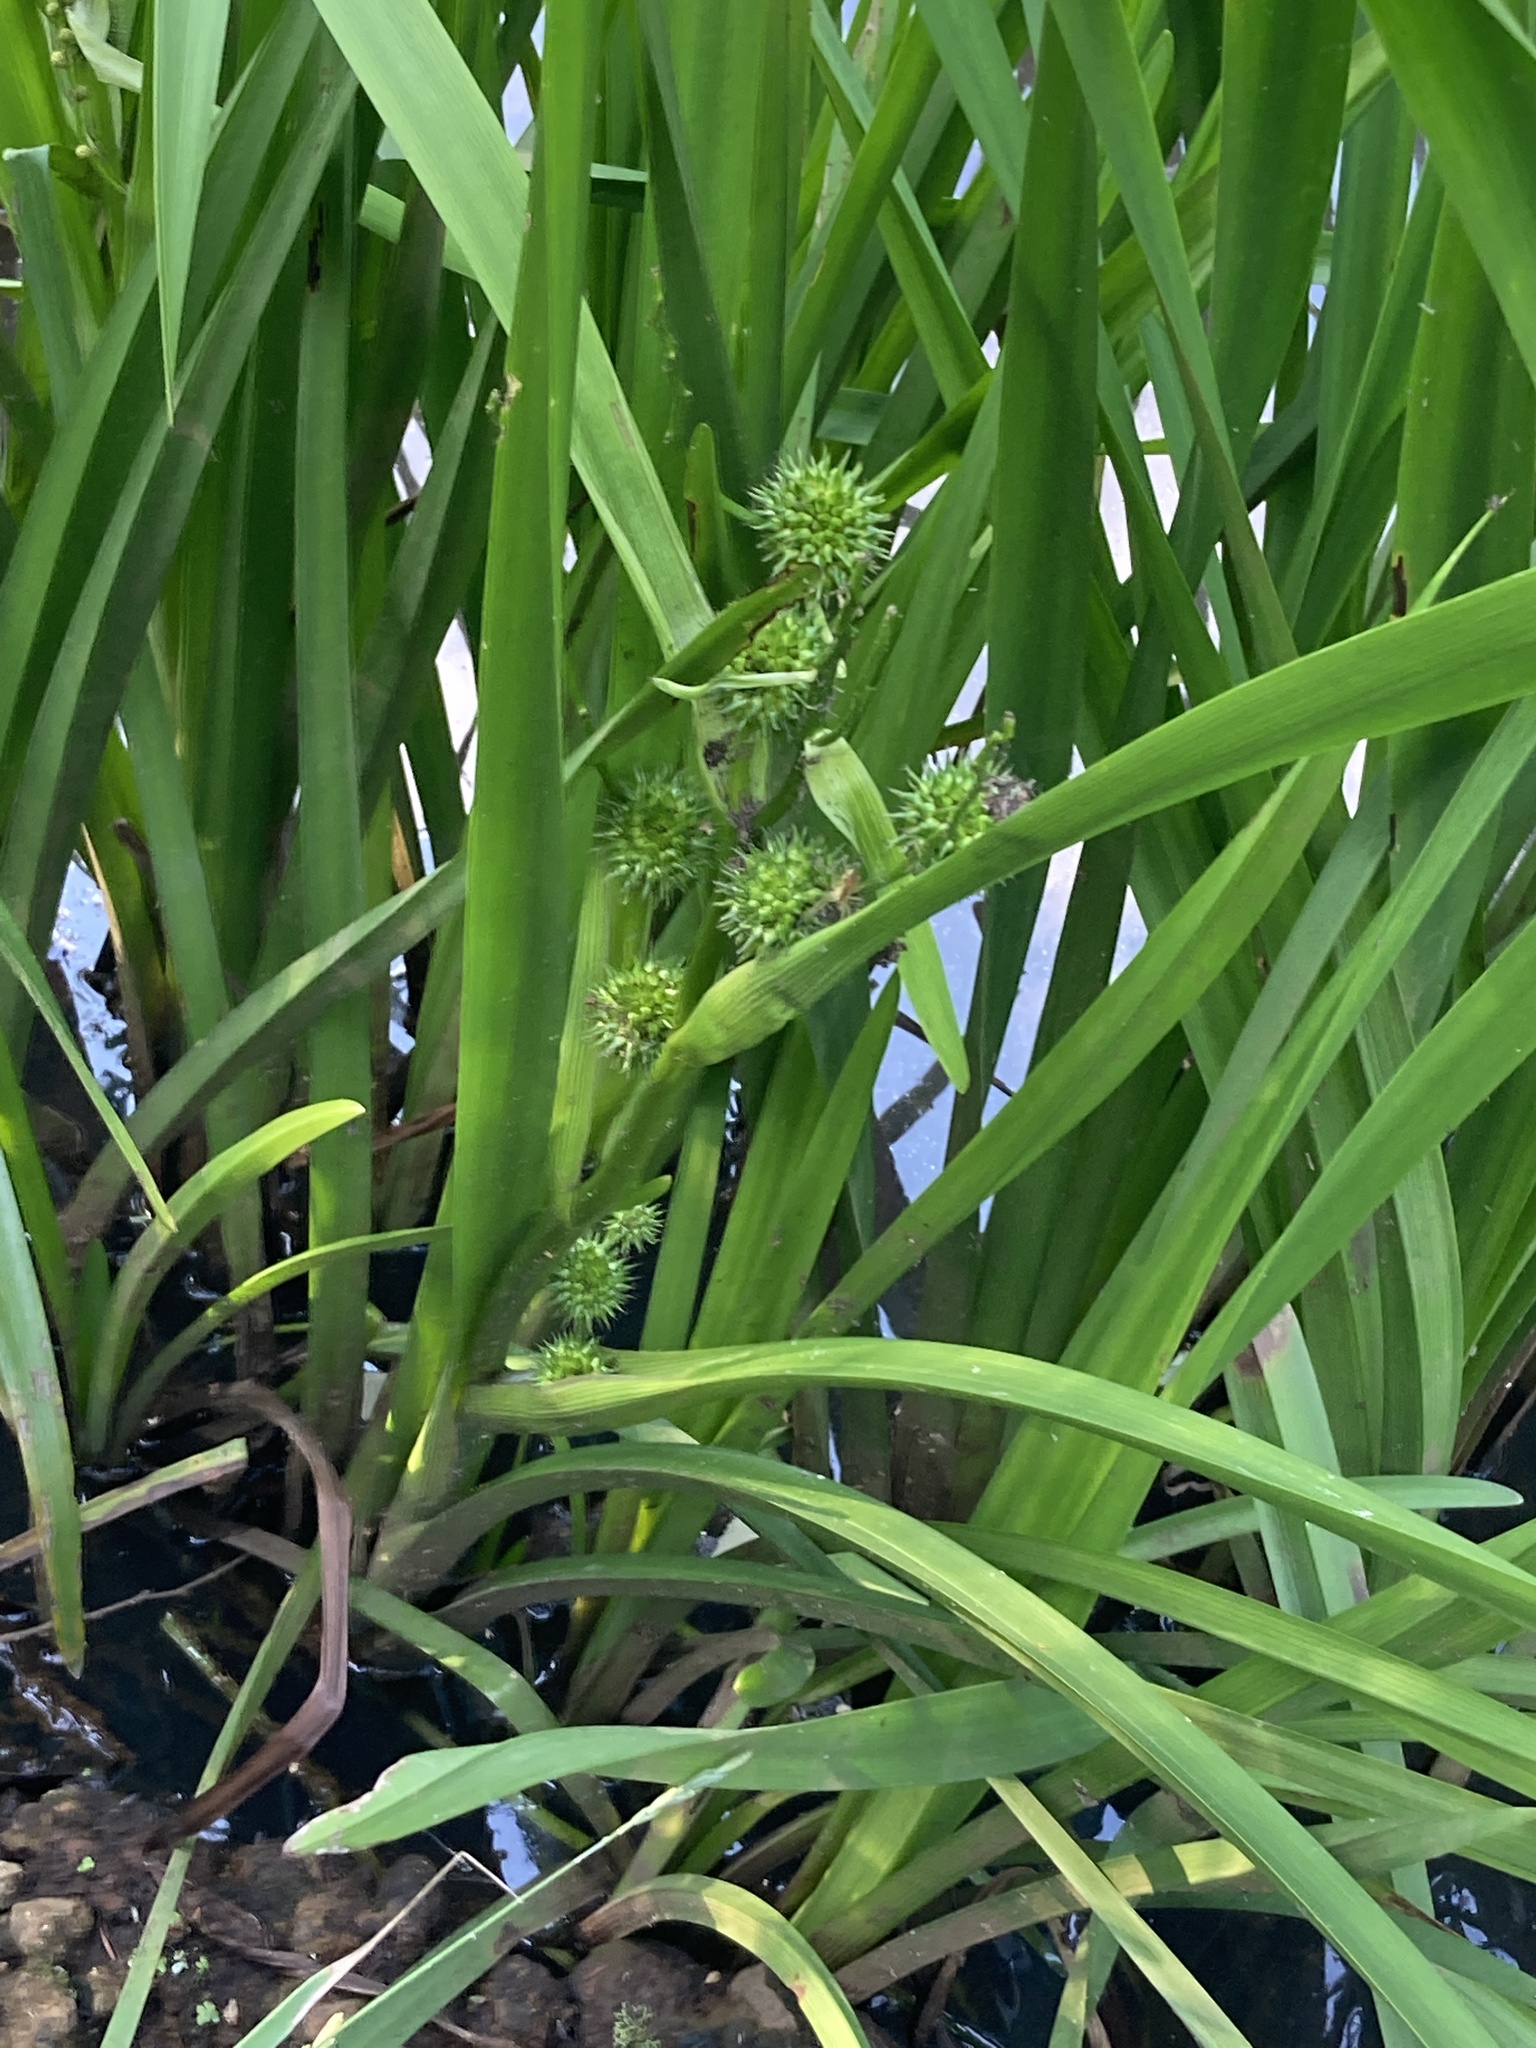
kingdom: Plantae
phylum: Tracheophyta
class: Liliopsida
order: Poales
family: Typhaceae
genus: Sparganium
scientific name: Sparganium erectum
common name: Branched bur-reed
